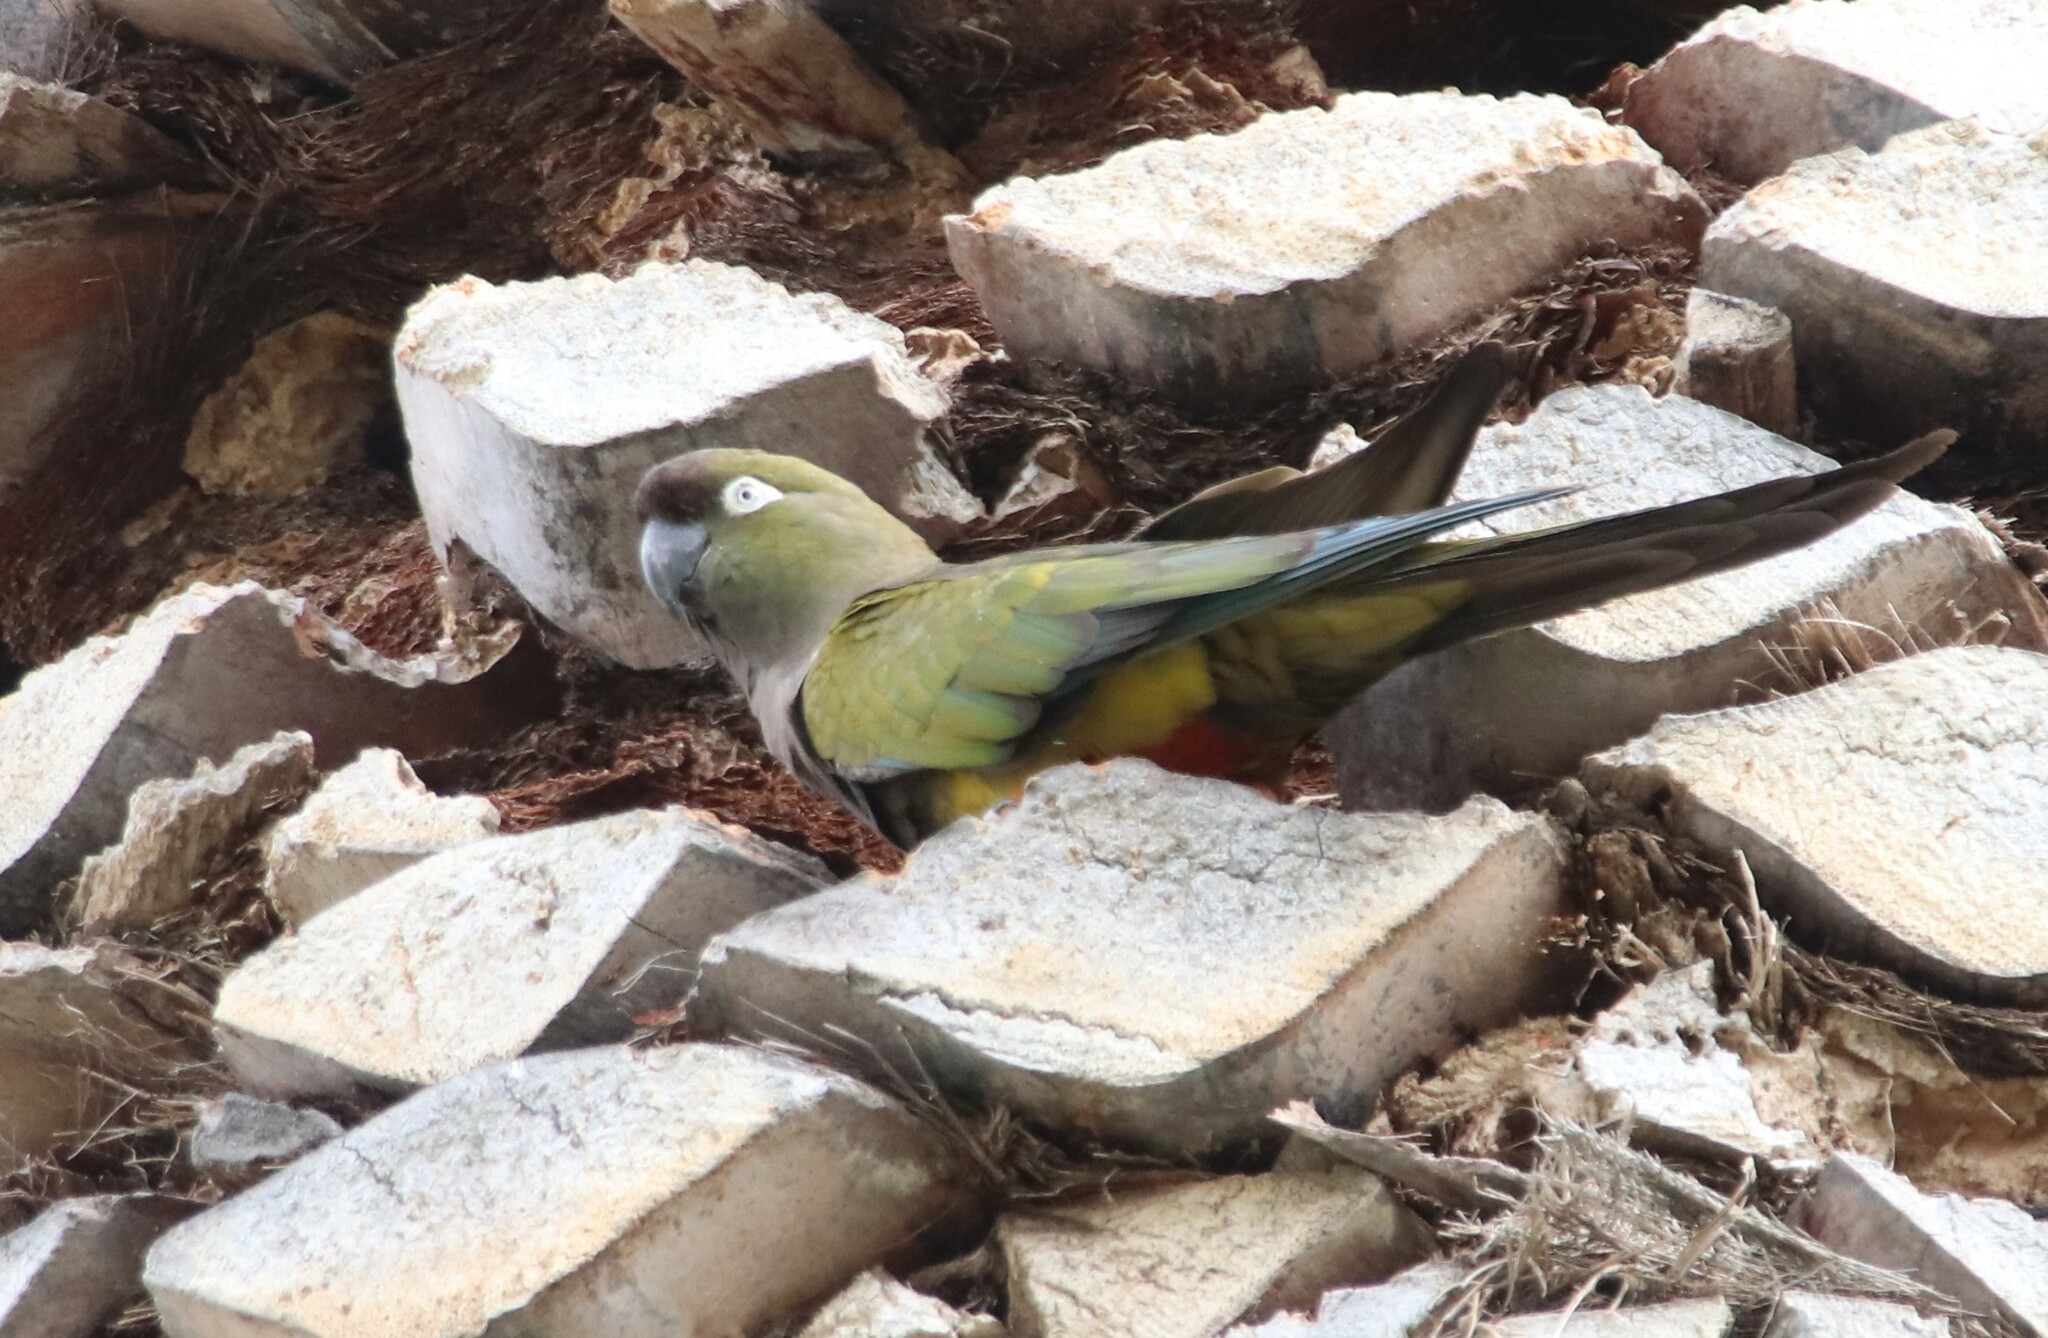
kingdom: Animalia
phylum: Chordata
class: Aves
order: Psittaciformes
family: Psittacidae
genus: Cyanoliseus
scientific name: Cyanoliseus patagonus
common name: Burrowing parrot
